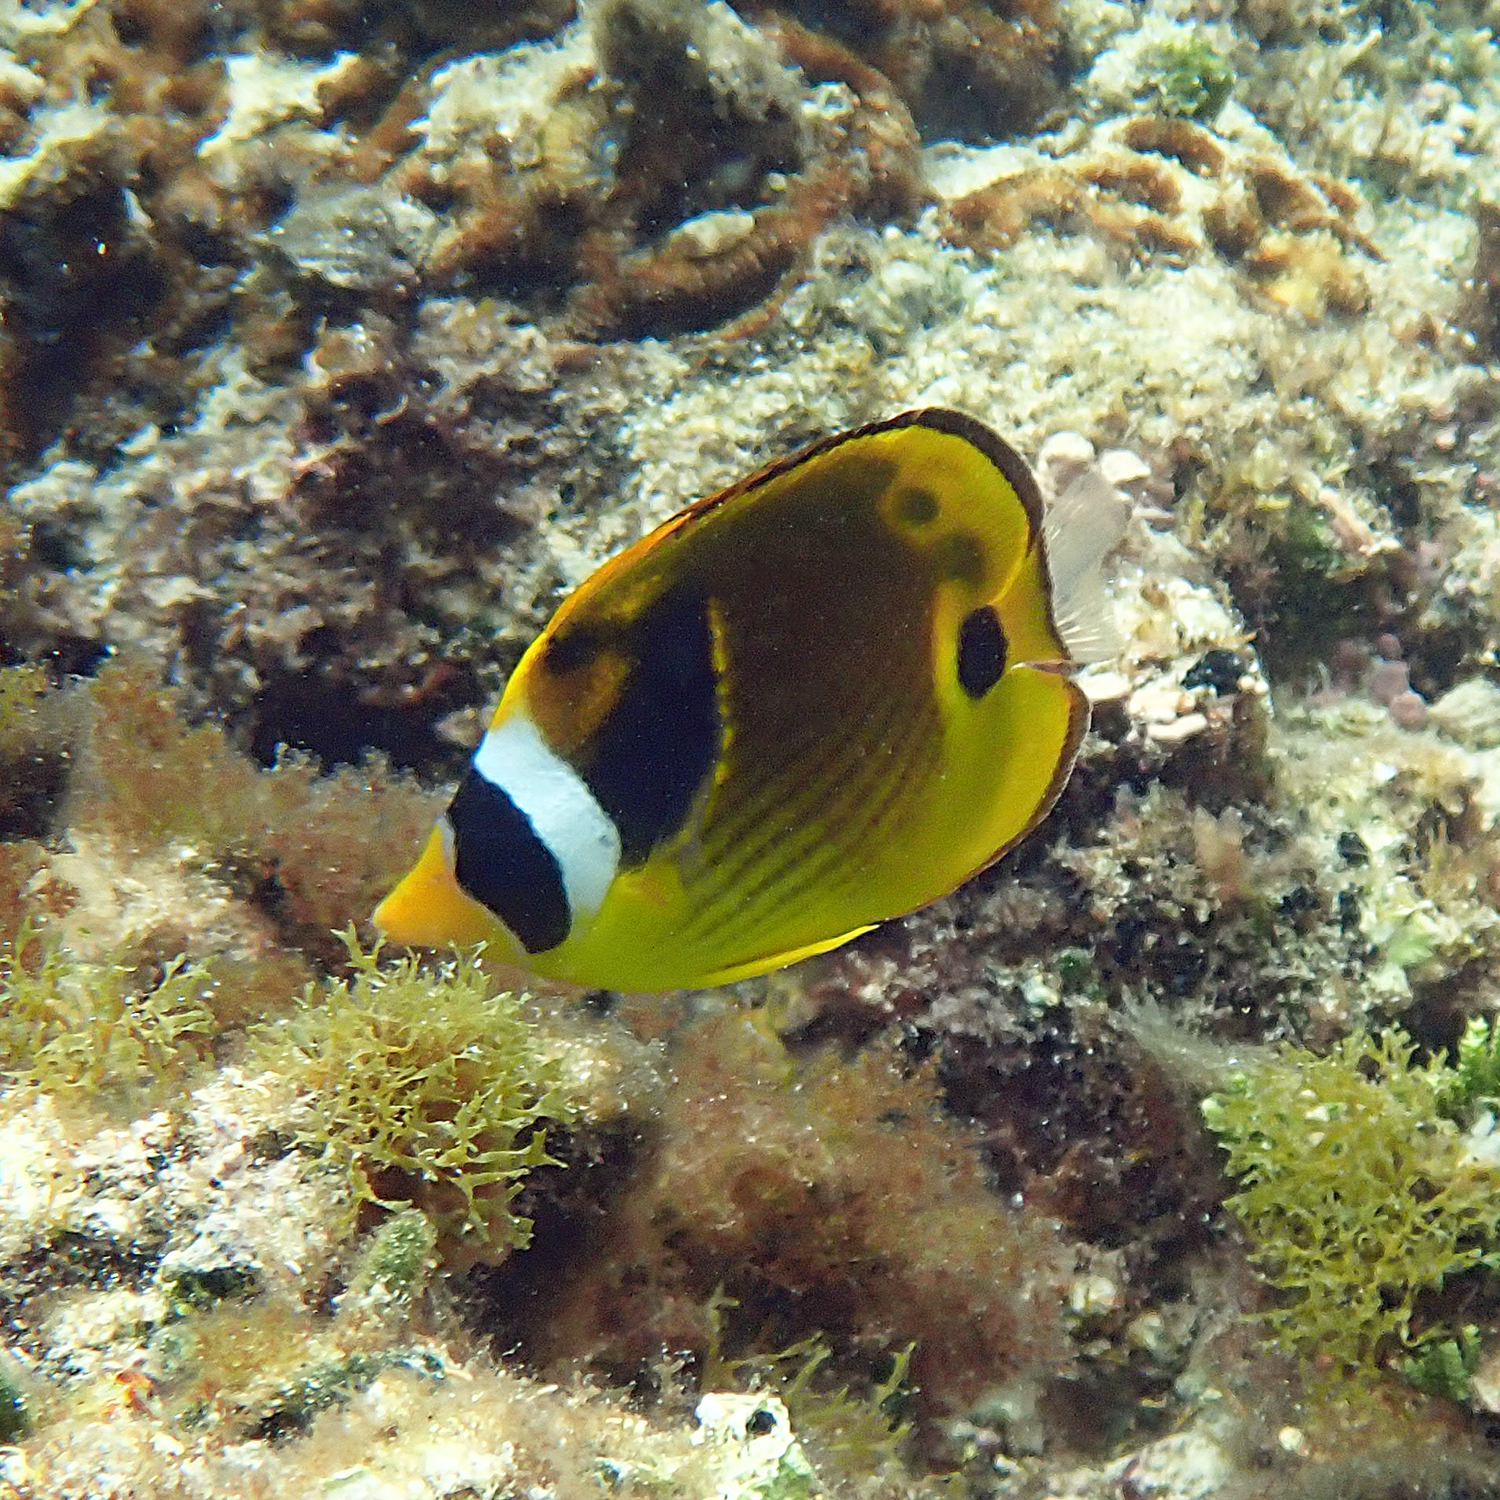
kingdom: Animalia
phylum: Chordata
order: Perciformes
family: Chaetodontidae
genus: Chaetodon
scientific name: Chaetodon lunula
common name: Raccoon butterflyfish
